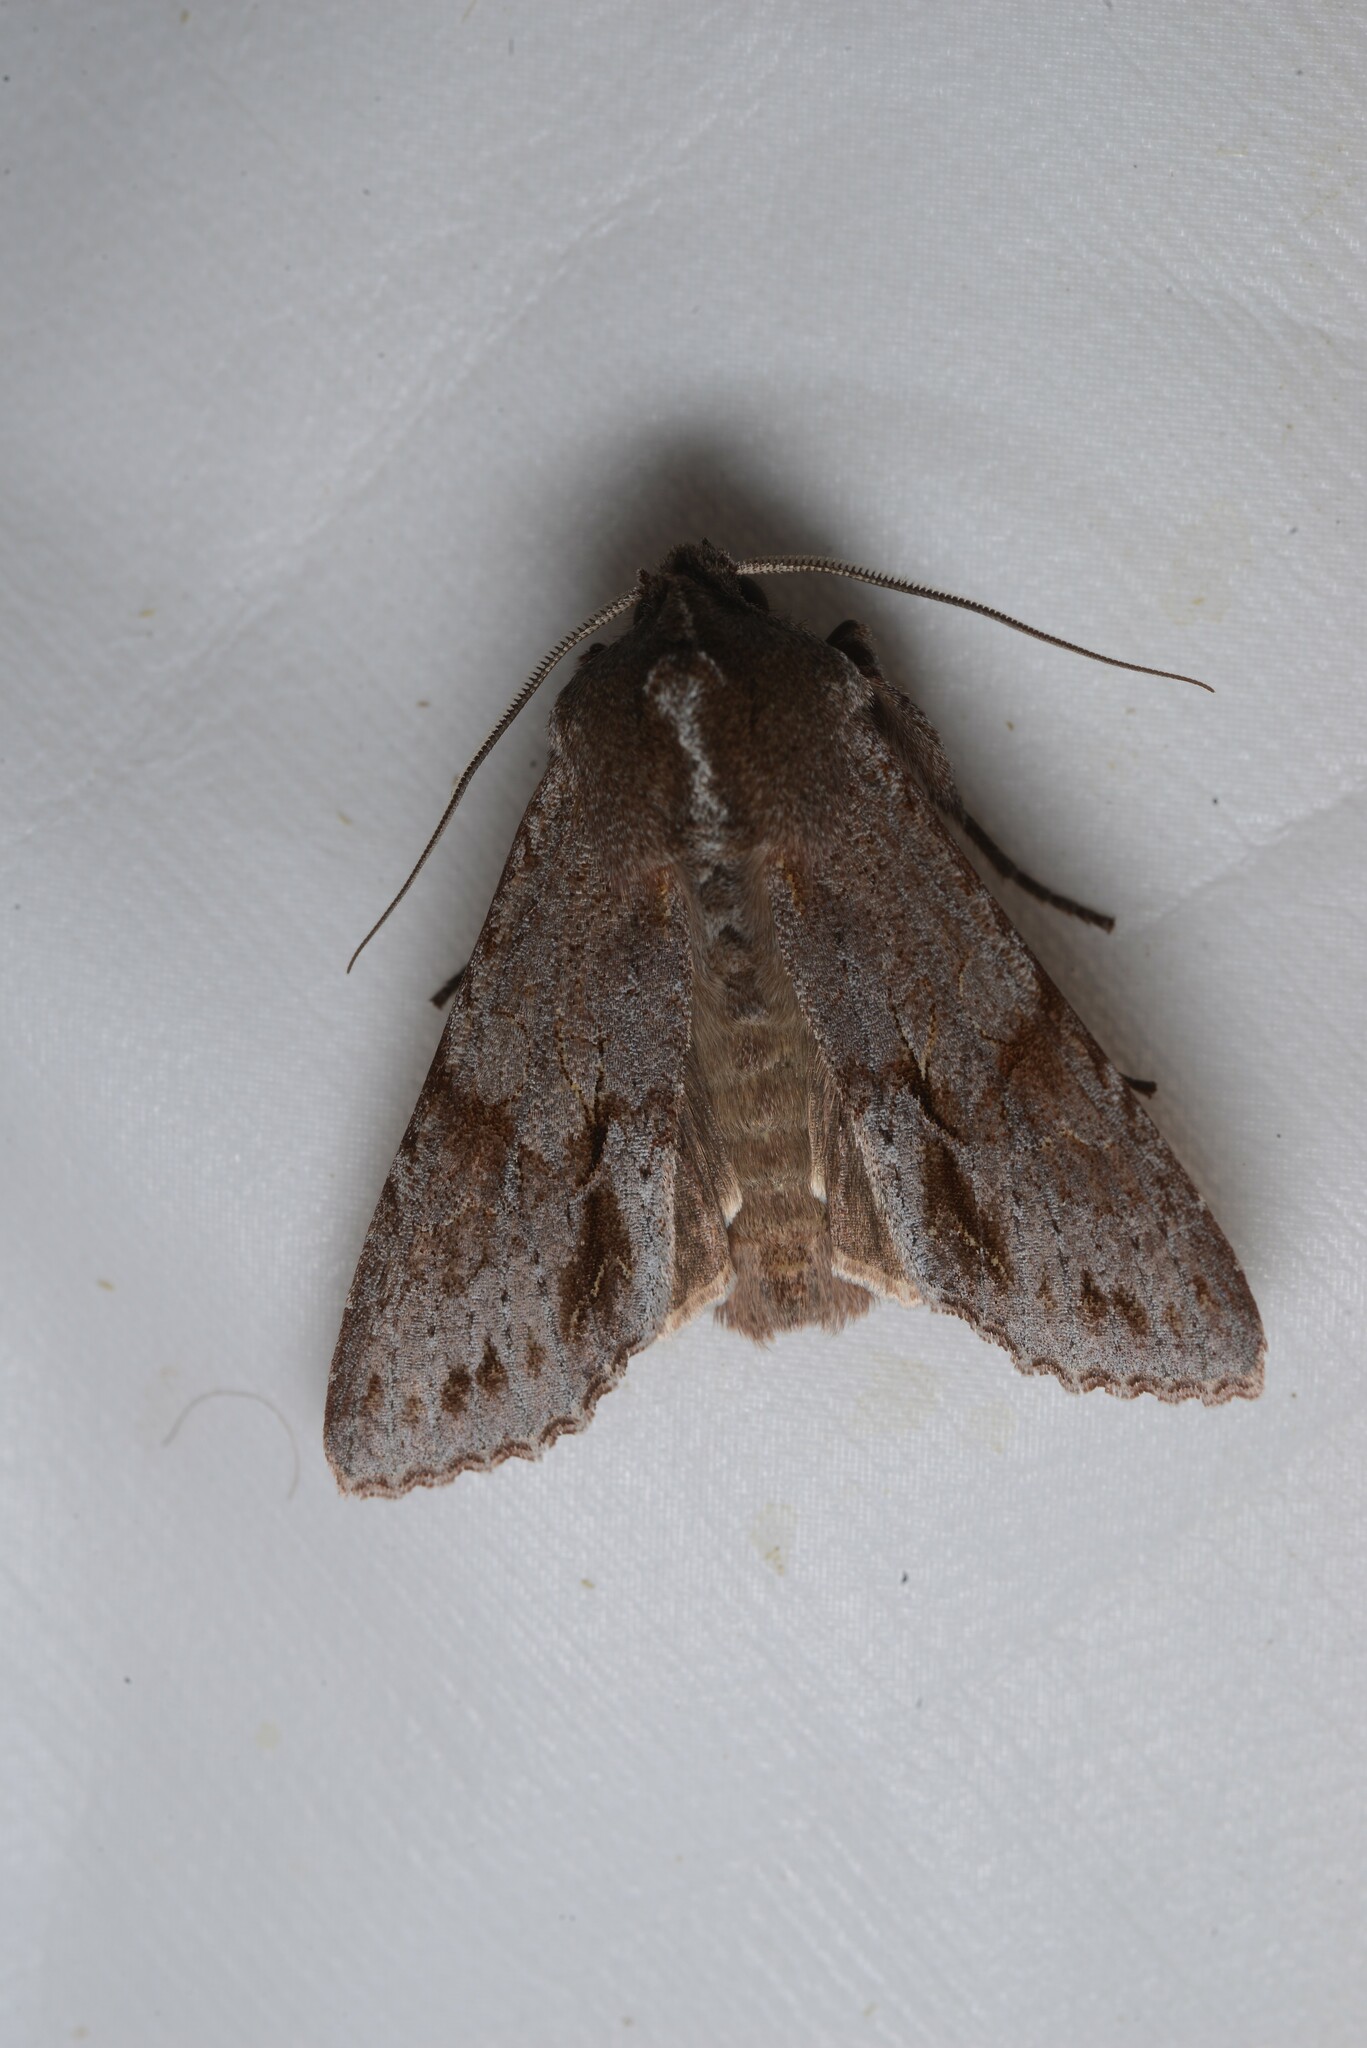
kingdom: Animalia
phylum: Arthropoda
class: Insecta
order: Lepidoptera
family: Noctuidae
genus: Ichneutica
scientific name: Ichneutica
